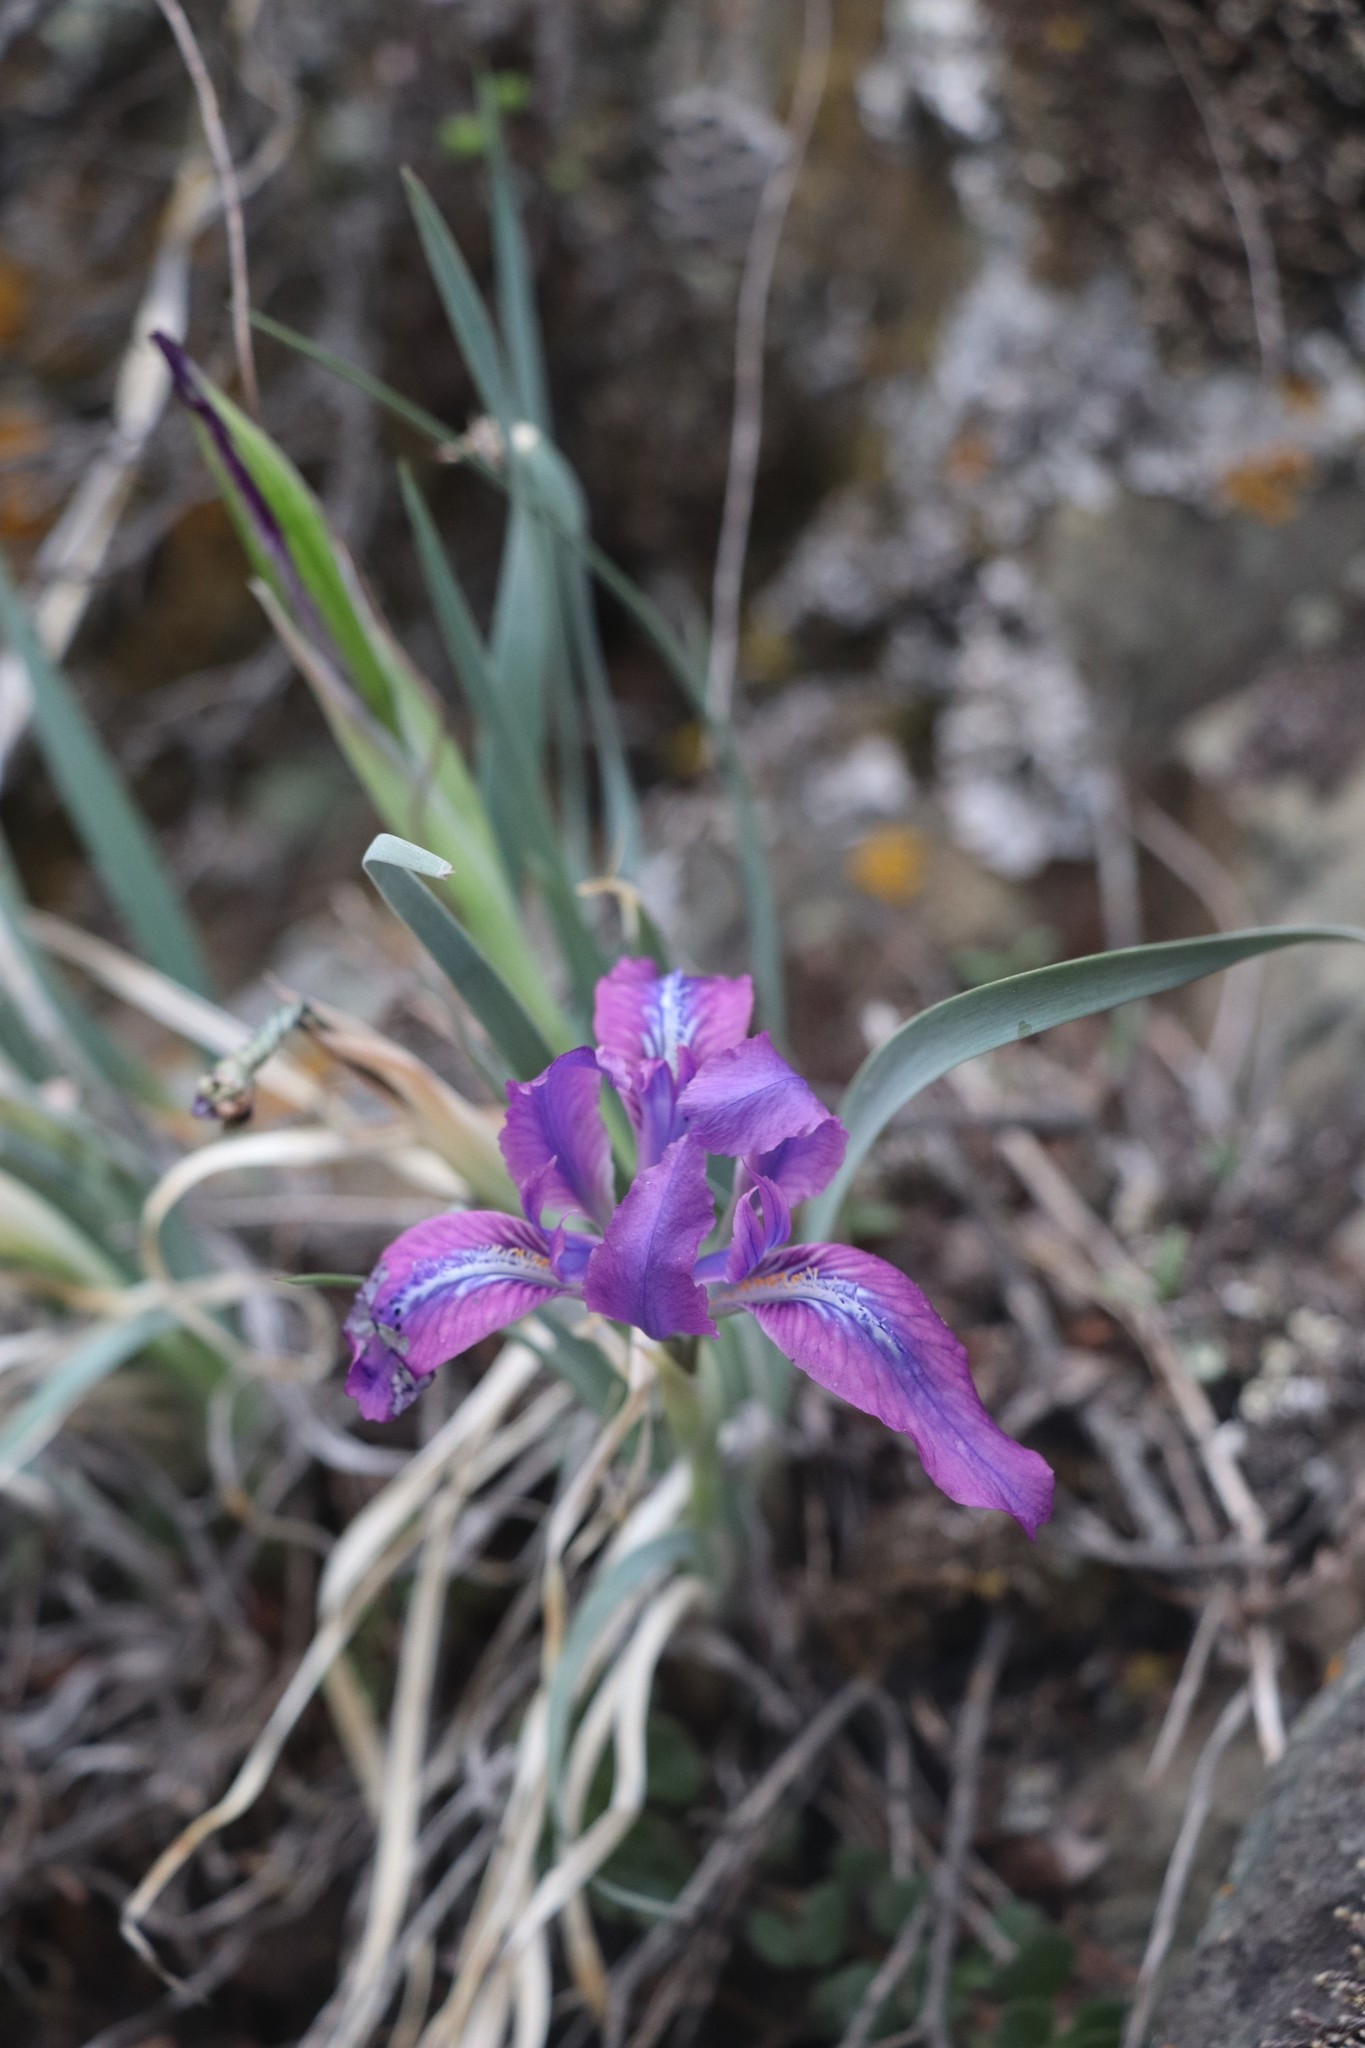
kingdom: Plantae
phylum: Tracheophyta
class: Liliopsida
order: Asparagales
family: Iridaceae
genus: Iris
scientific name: Iris tigridia
